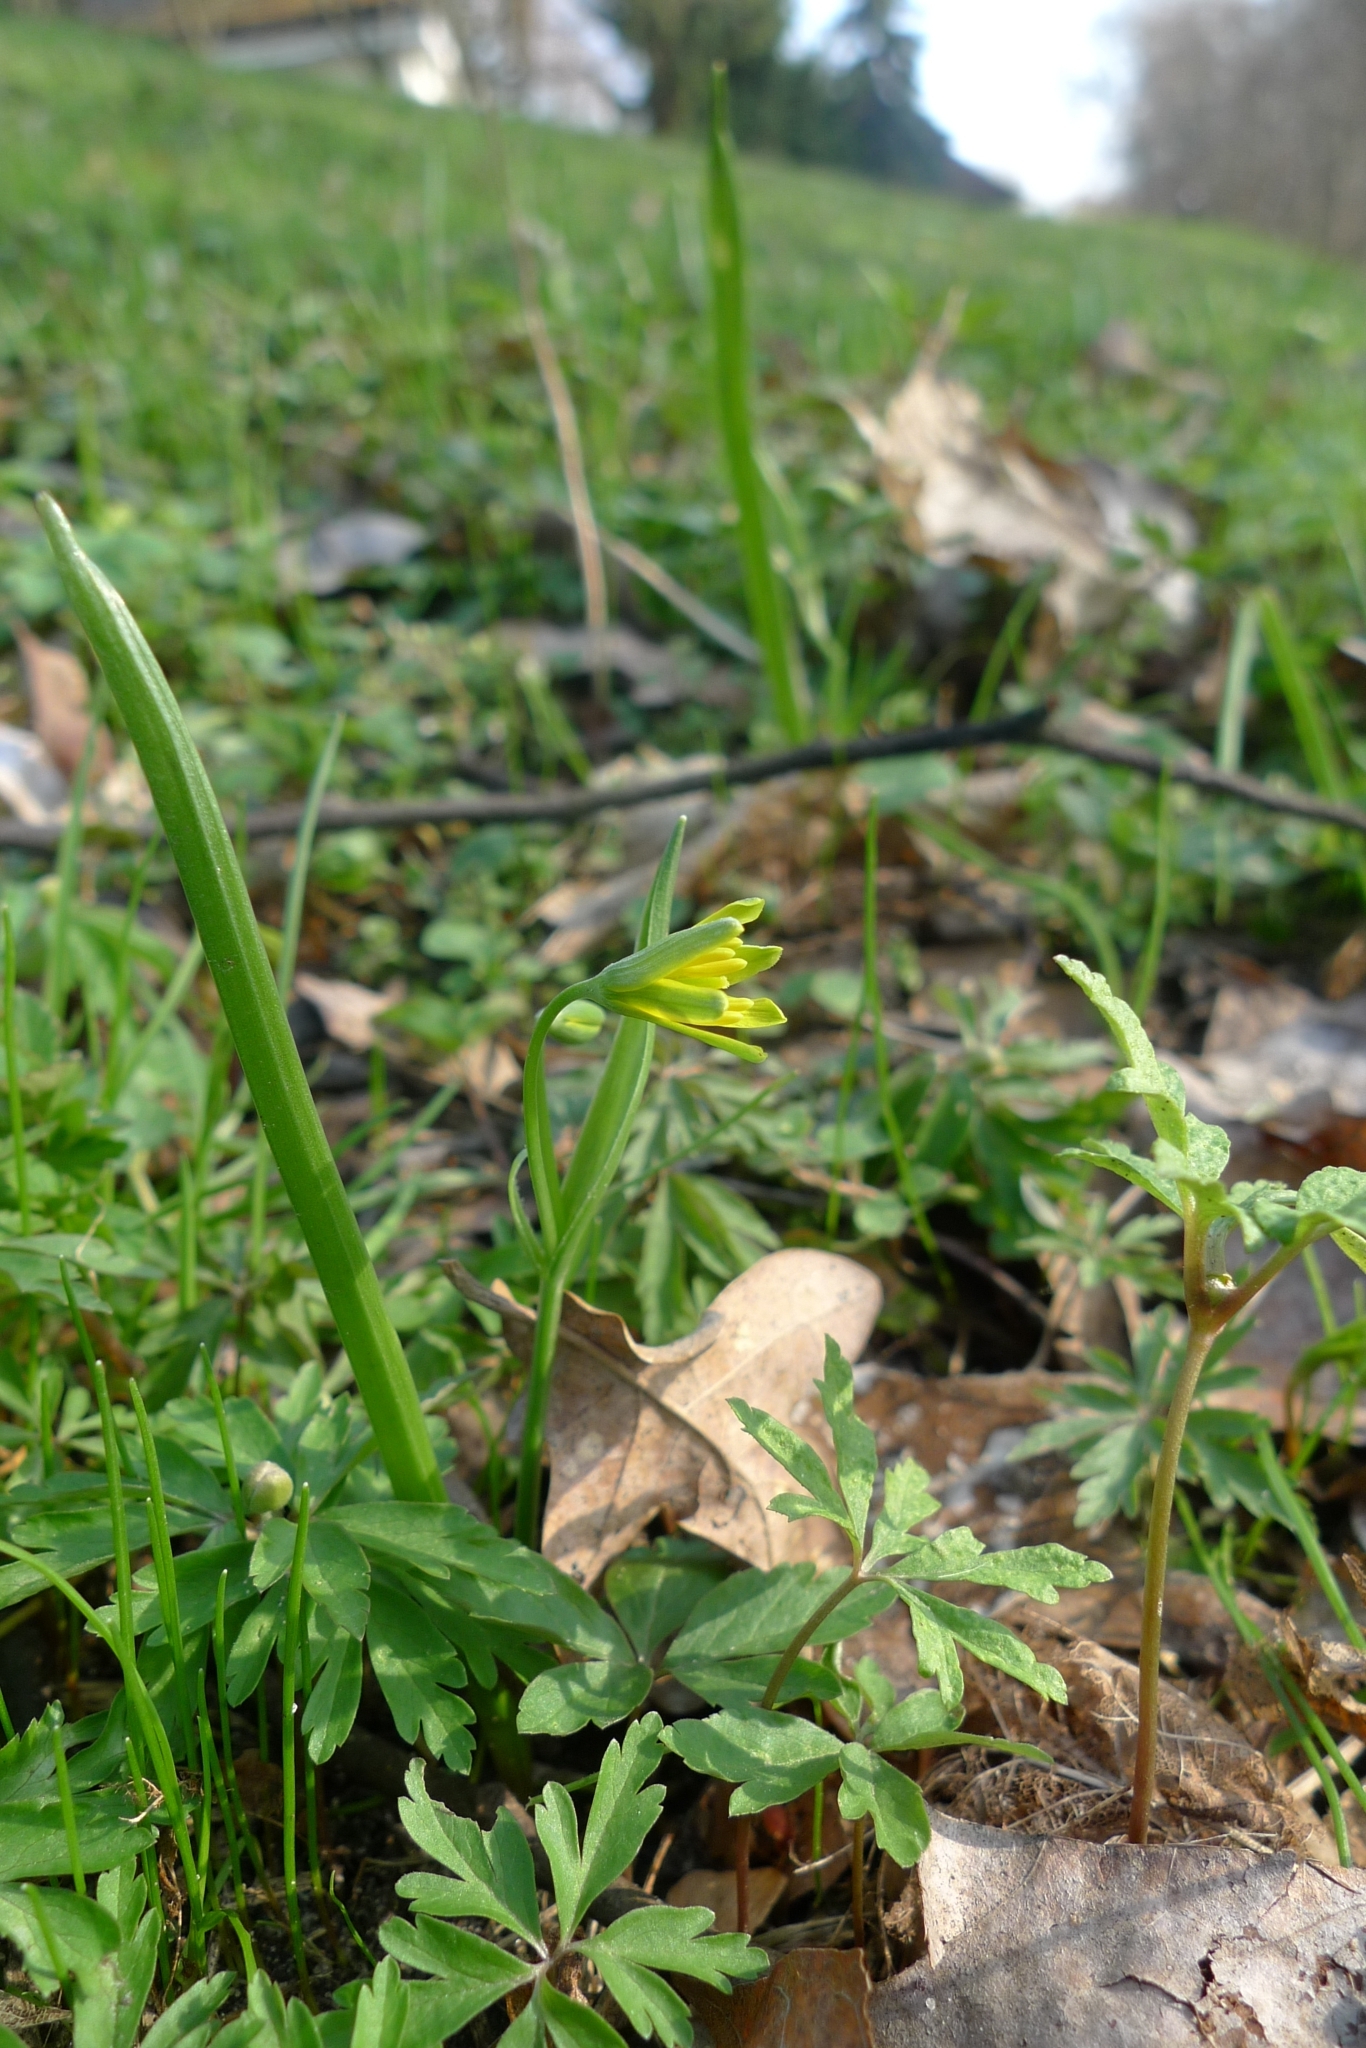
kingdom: Plantae
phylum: Tracheophyta
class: Liliopsida
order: Liliales
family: Liliaceae
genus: Gagea
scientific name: Gagea lutea
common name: Yellow star-of-bethlehem
